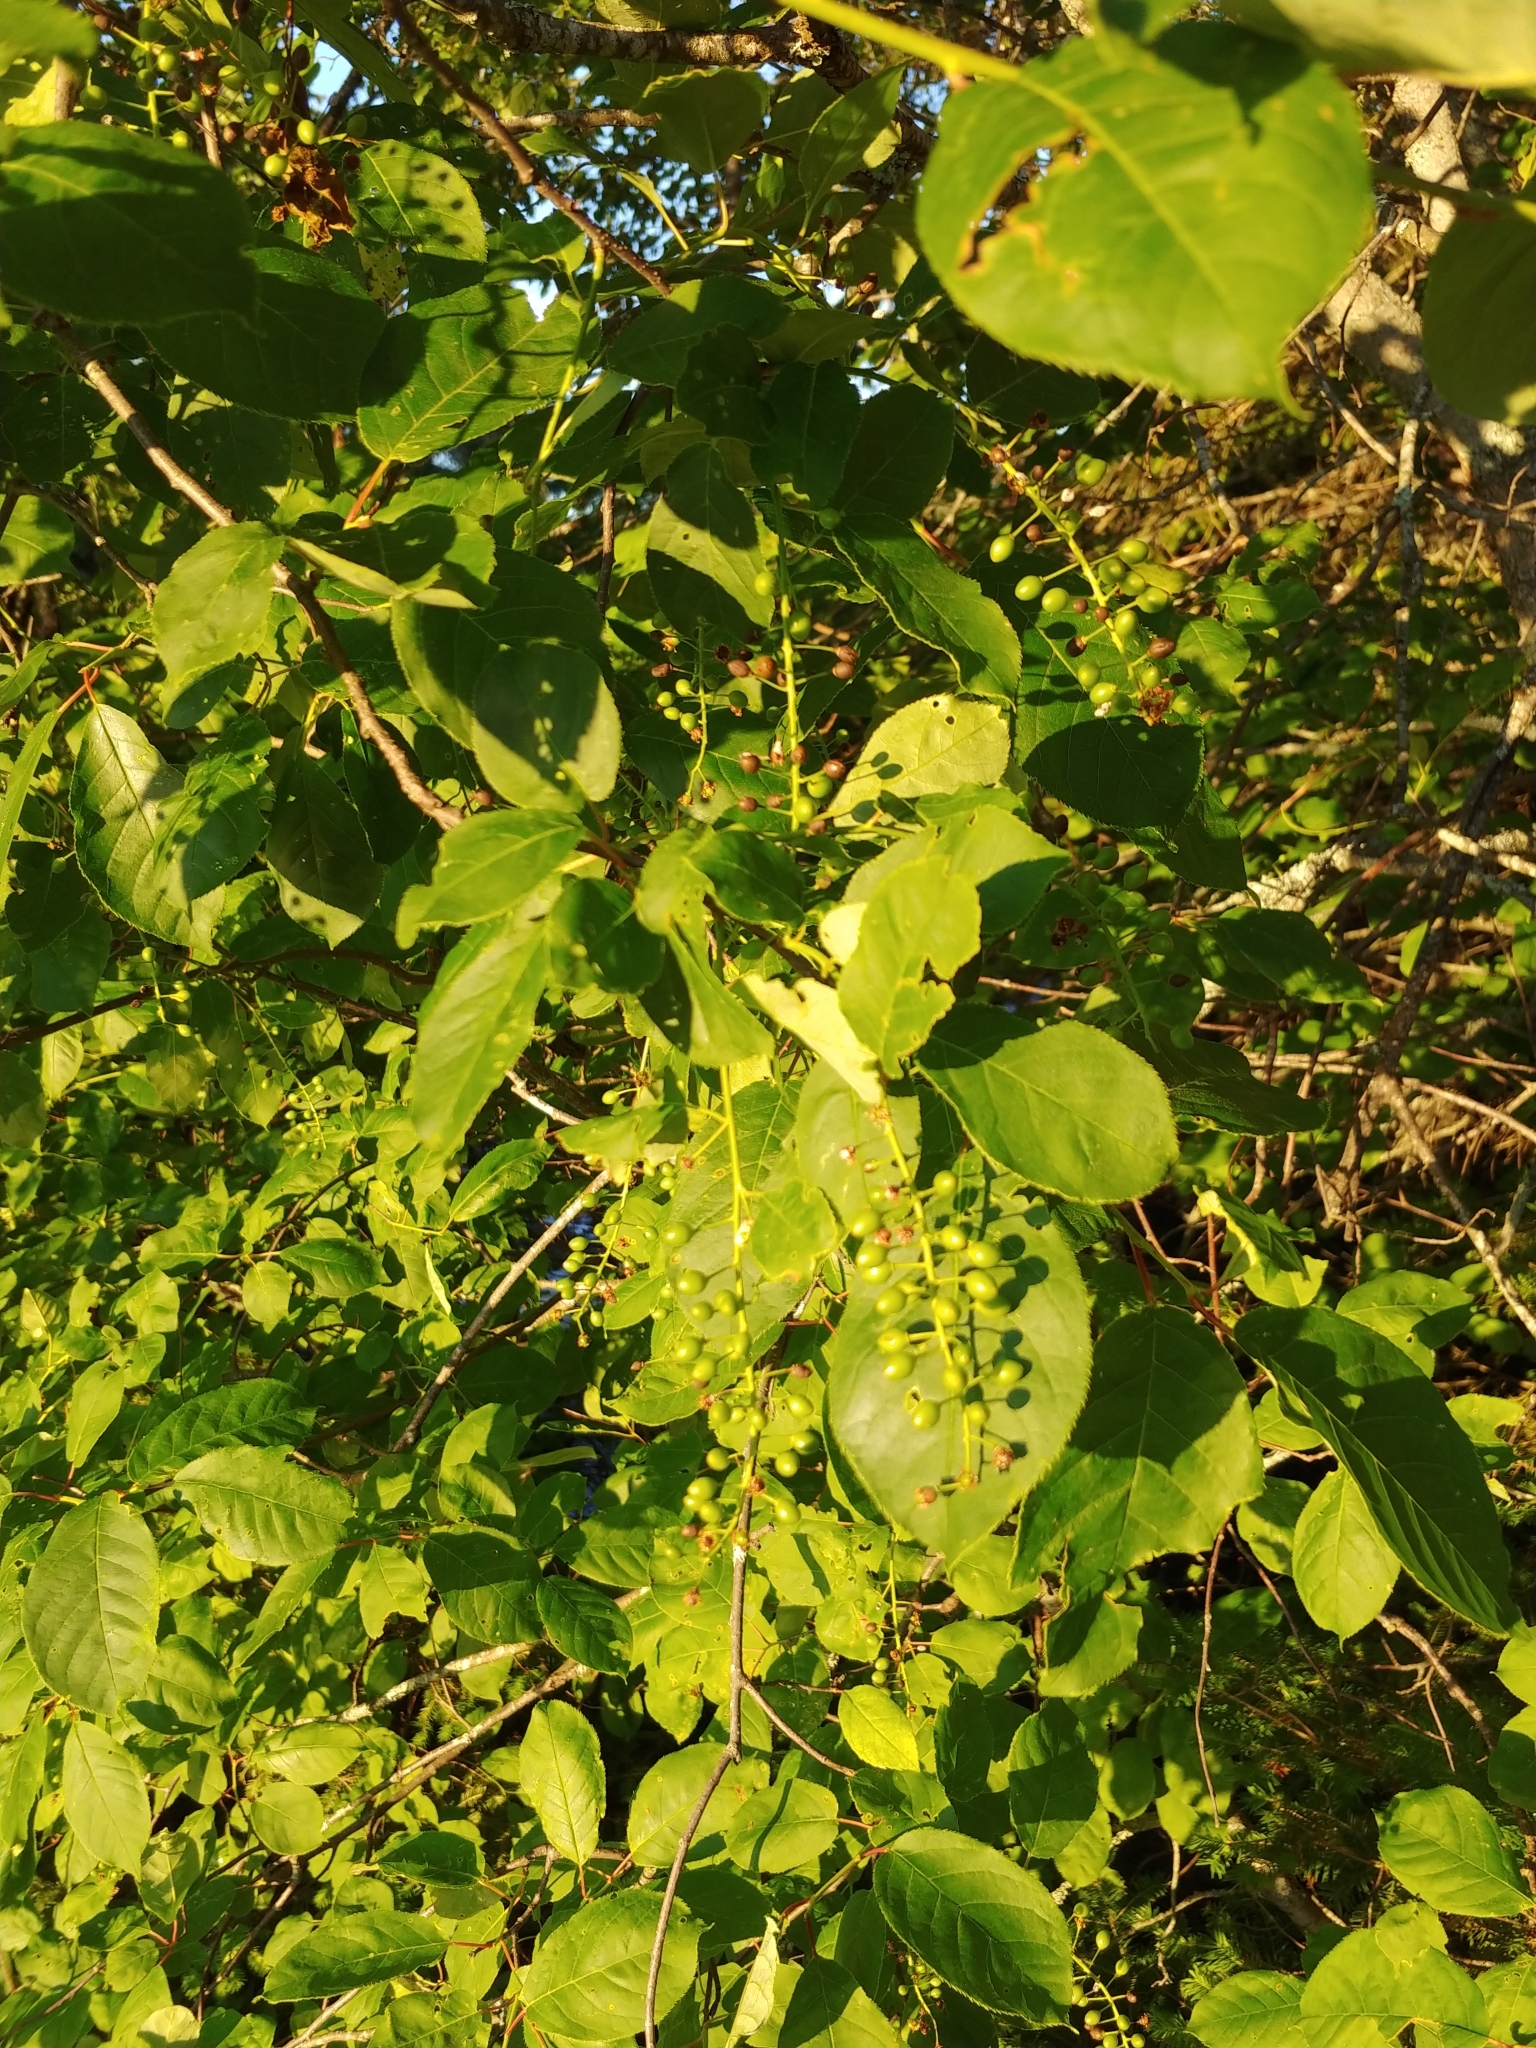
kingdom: Plantae
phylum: Tracheophyta
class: Magnoliopsida
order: Rosales
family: Rosaceae
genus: Prunus
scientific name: Prunus virginiana
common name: Chokecherry
